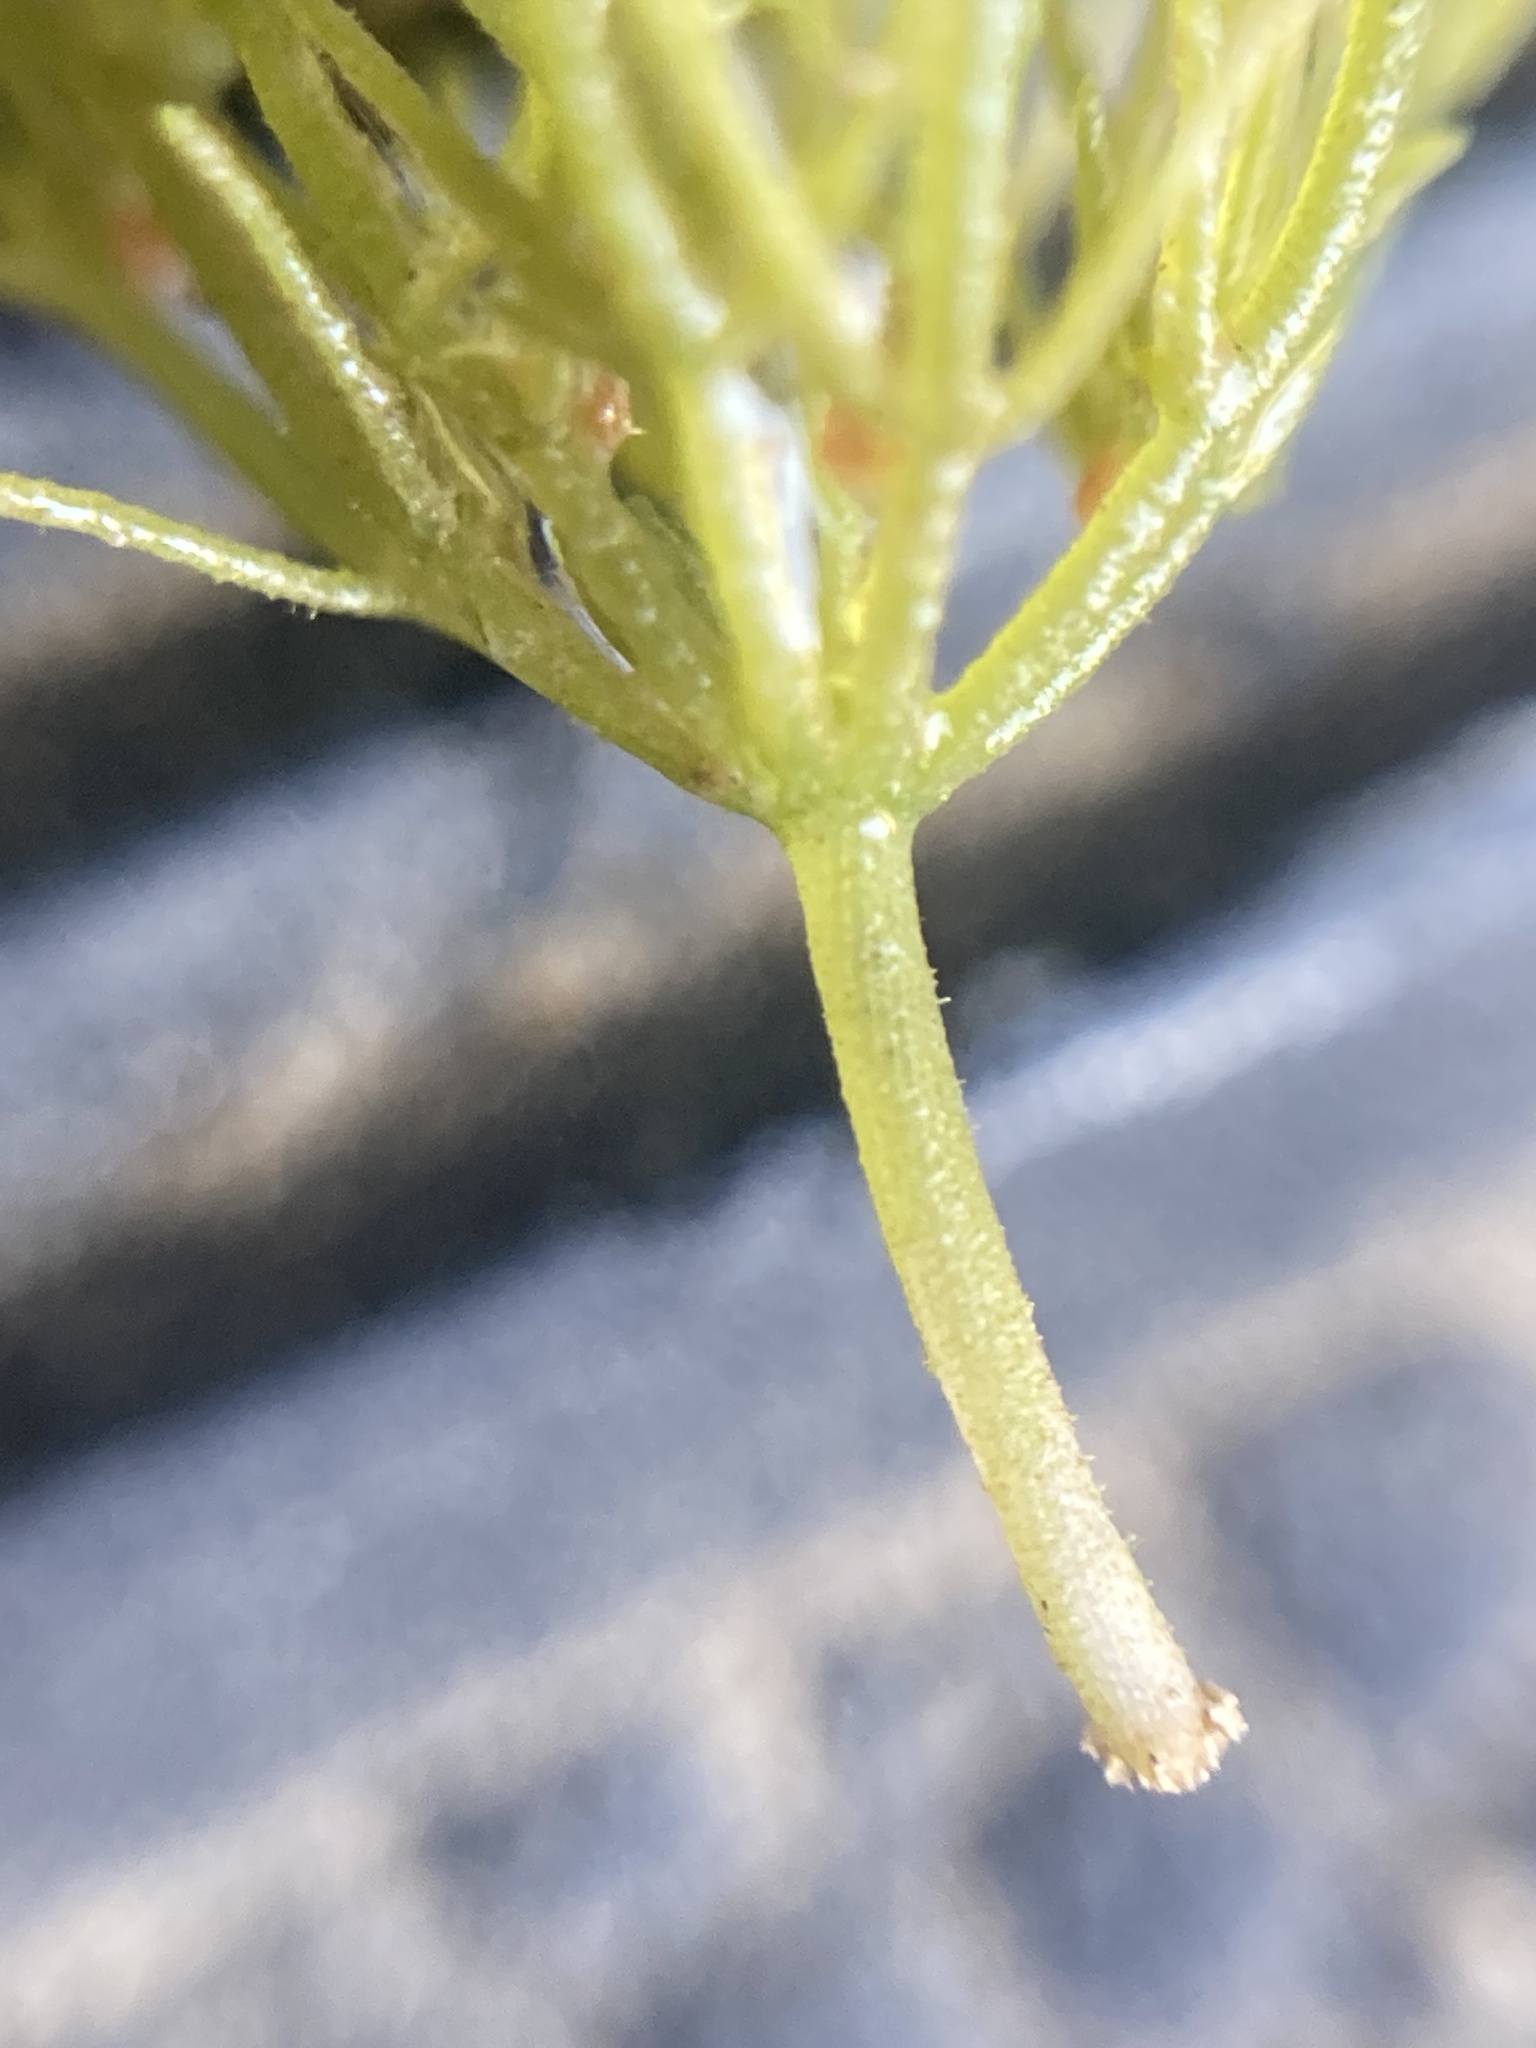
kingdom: Plantae
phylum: Charophyta
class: Charophyceae
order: Charales
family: Characeae
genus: Chara
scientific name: Chara vulgaris
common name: Common stonewort
